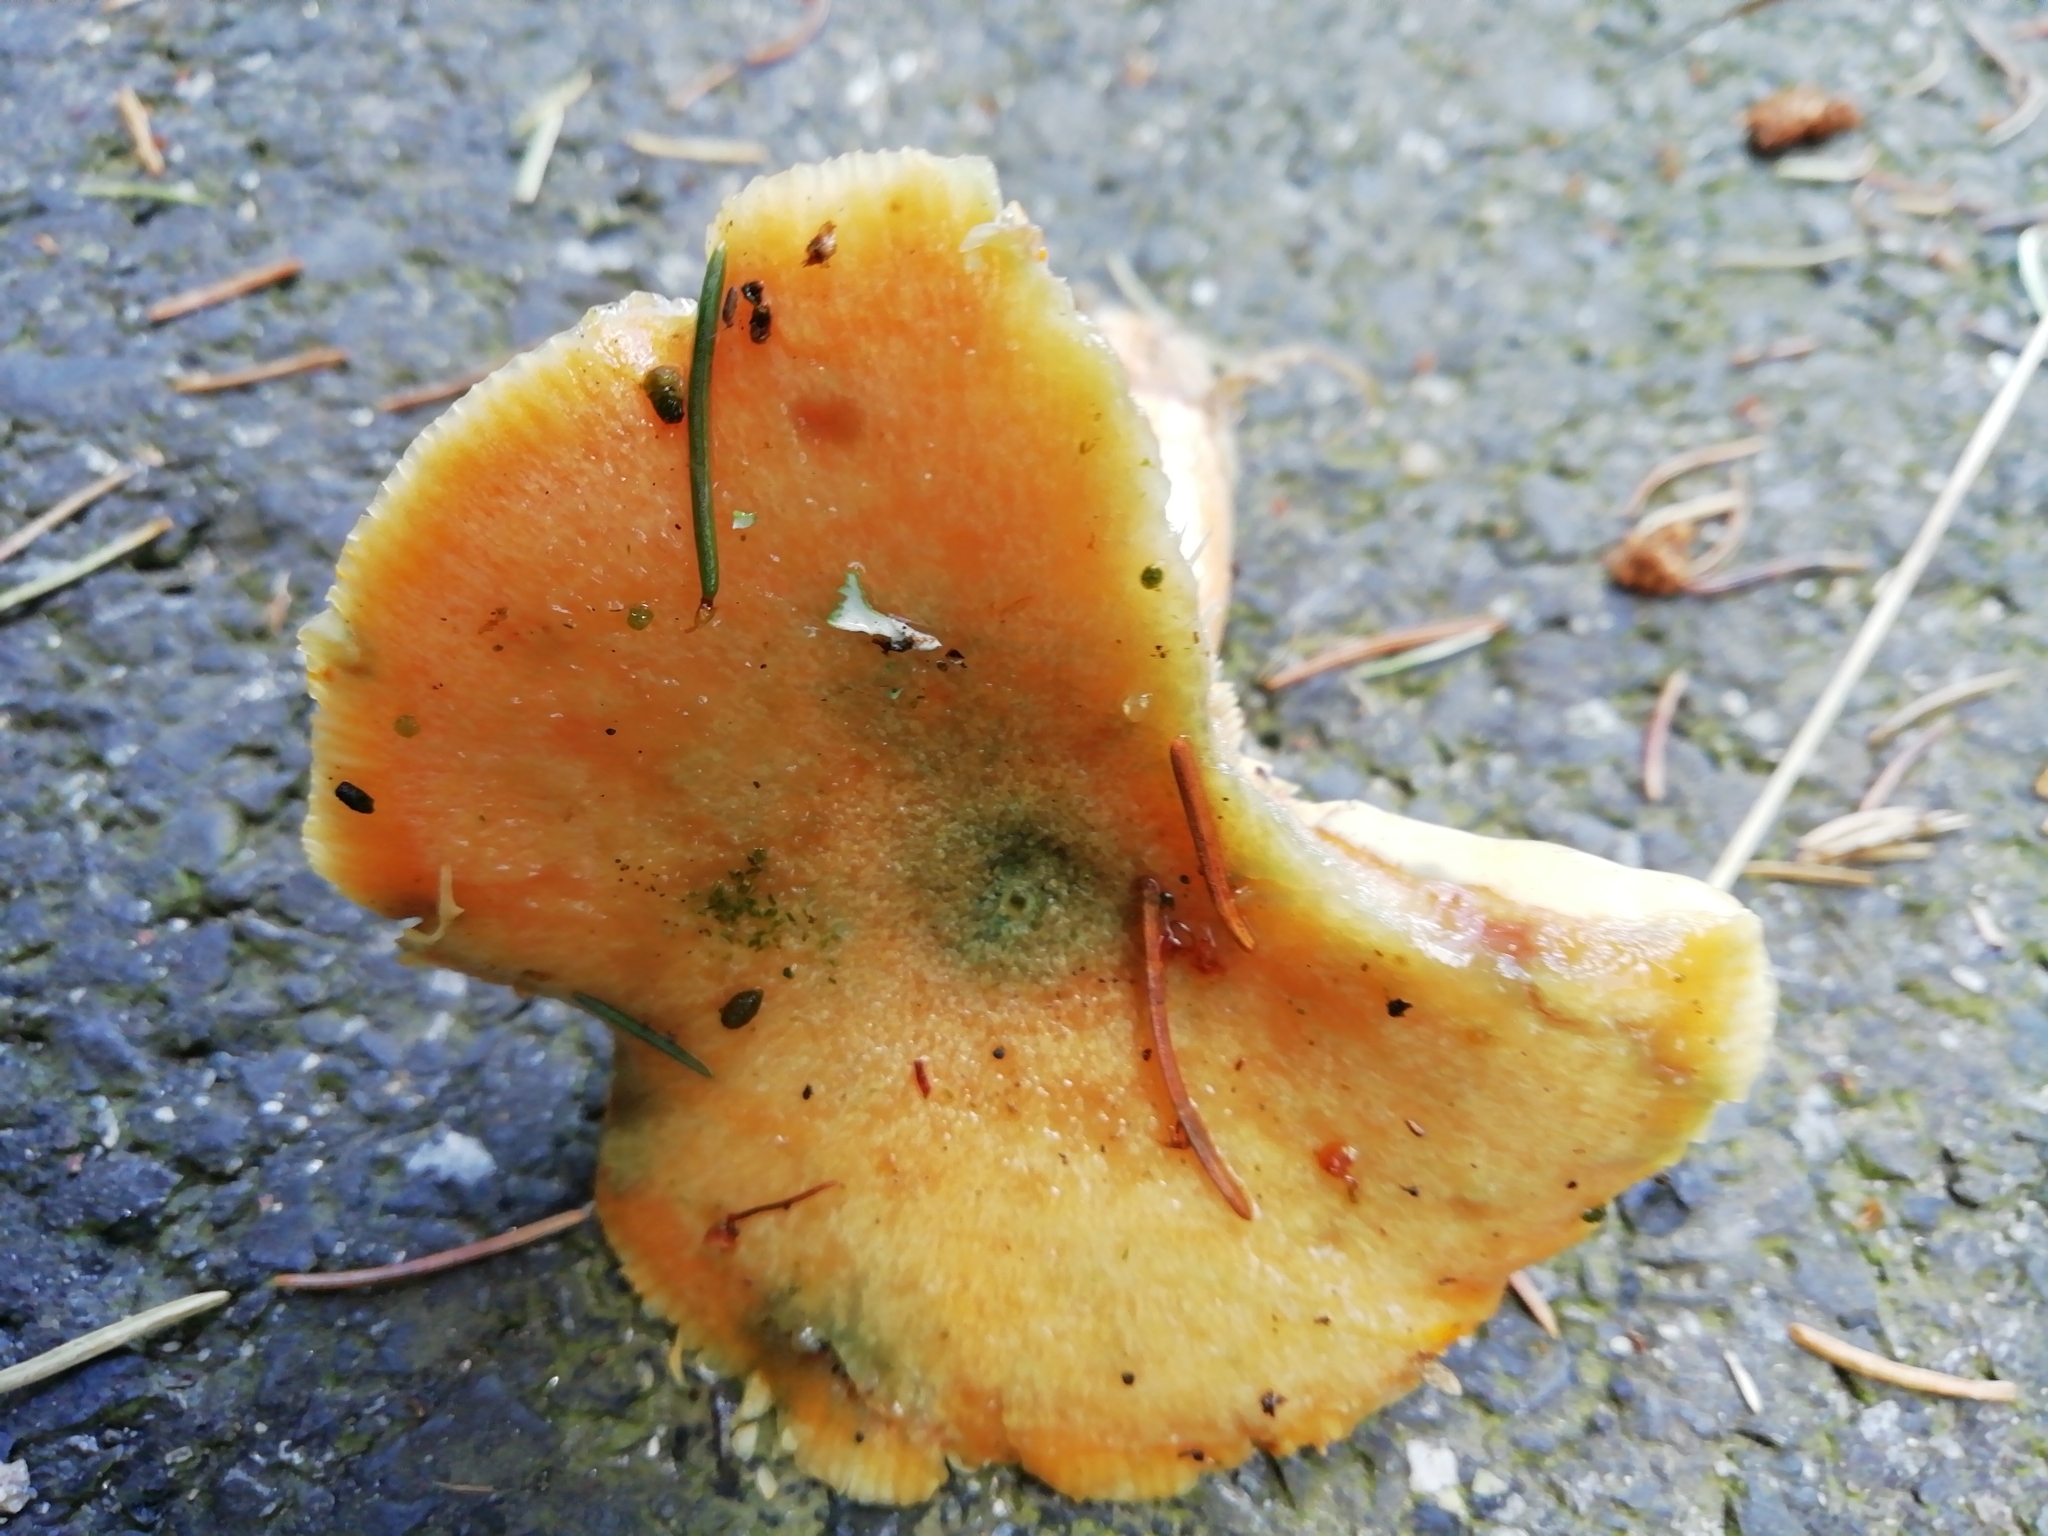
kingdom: Fungi
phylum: Basidiomycota
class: Agaricomycetes
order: Russulales
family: Russulaceae
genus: Lactarius
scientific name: Lactarius deterrimus
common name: False saffron milkcap
